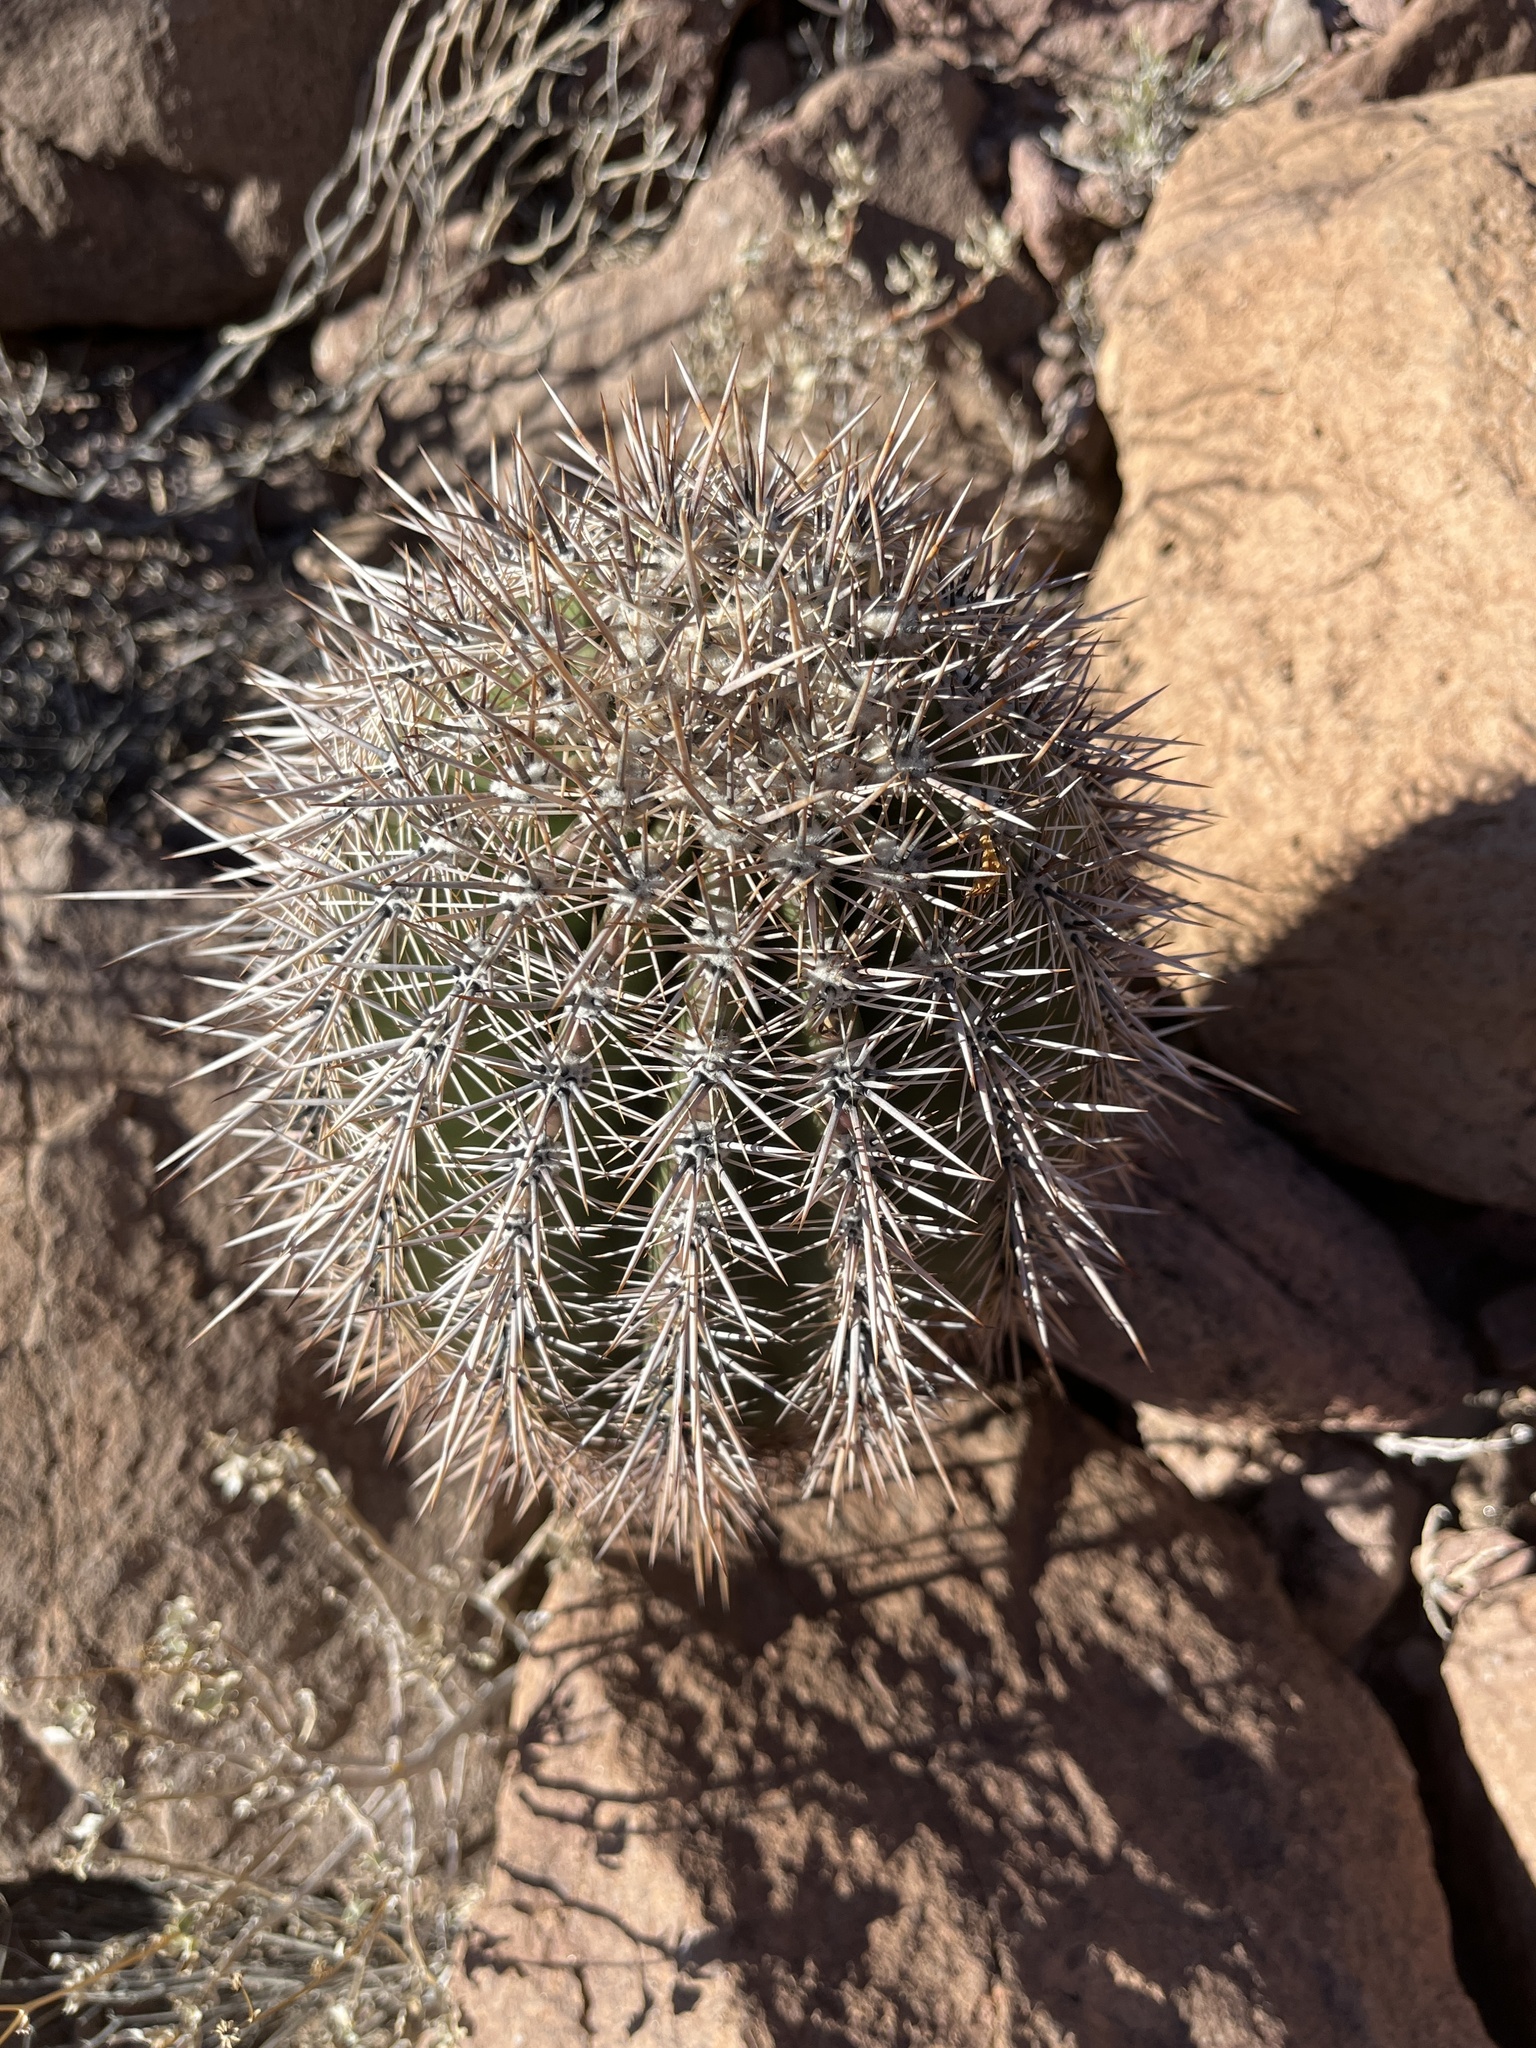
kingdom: Plantae
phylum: Tracheophyta
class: Magnoliopsida
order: Caryophyllales
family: Cactaceae
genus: Carnegiea
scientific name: Carnegiea gigantea
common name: Saguaro
